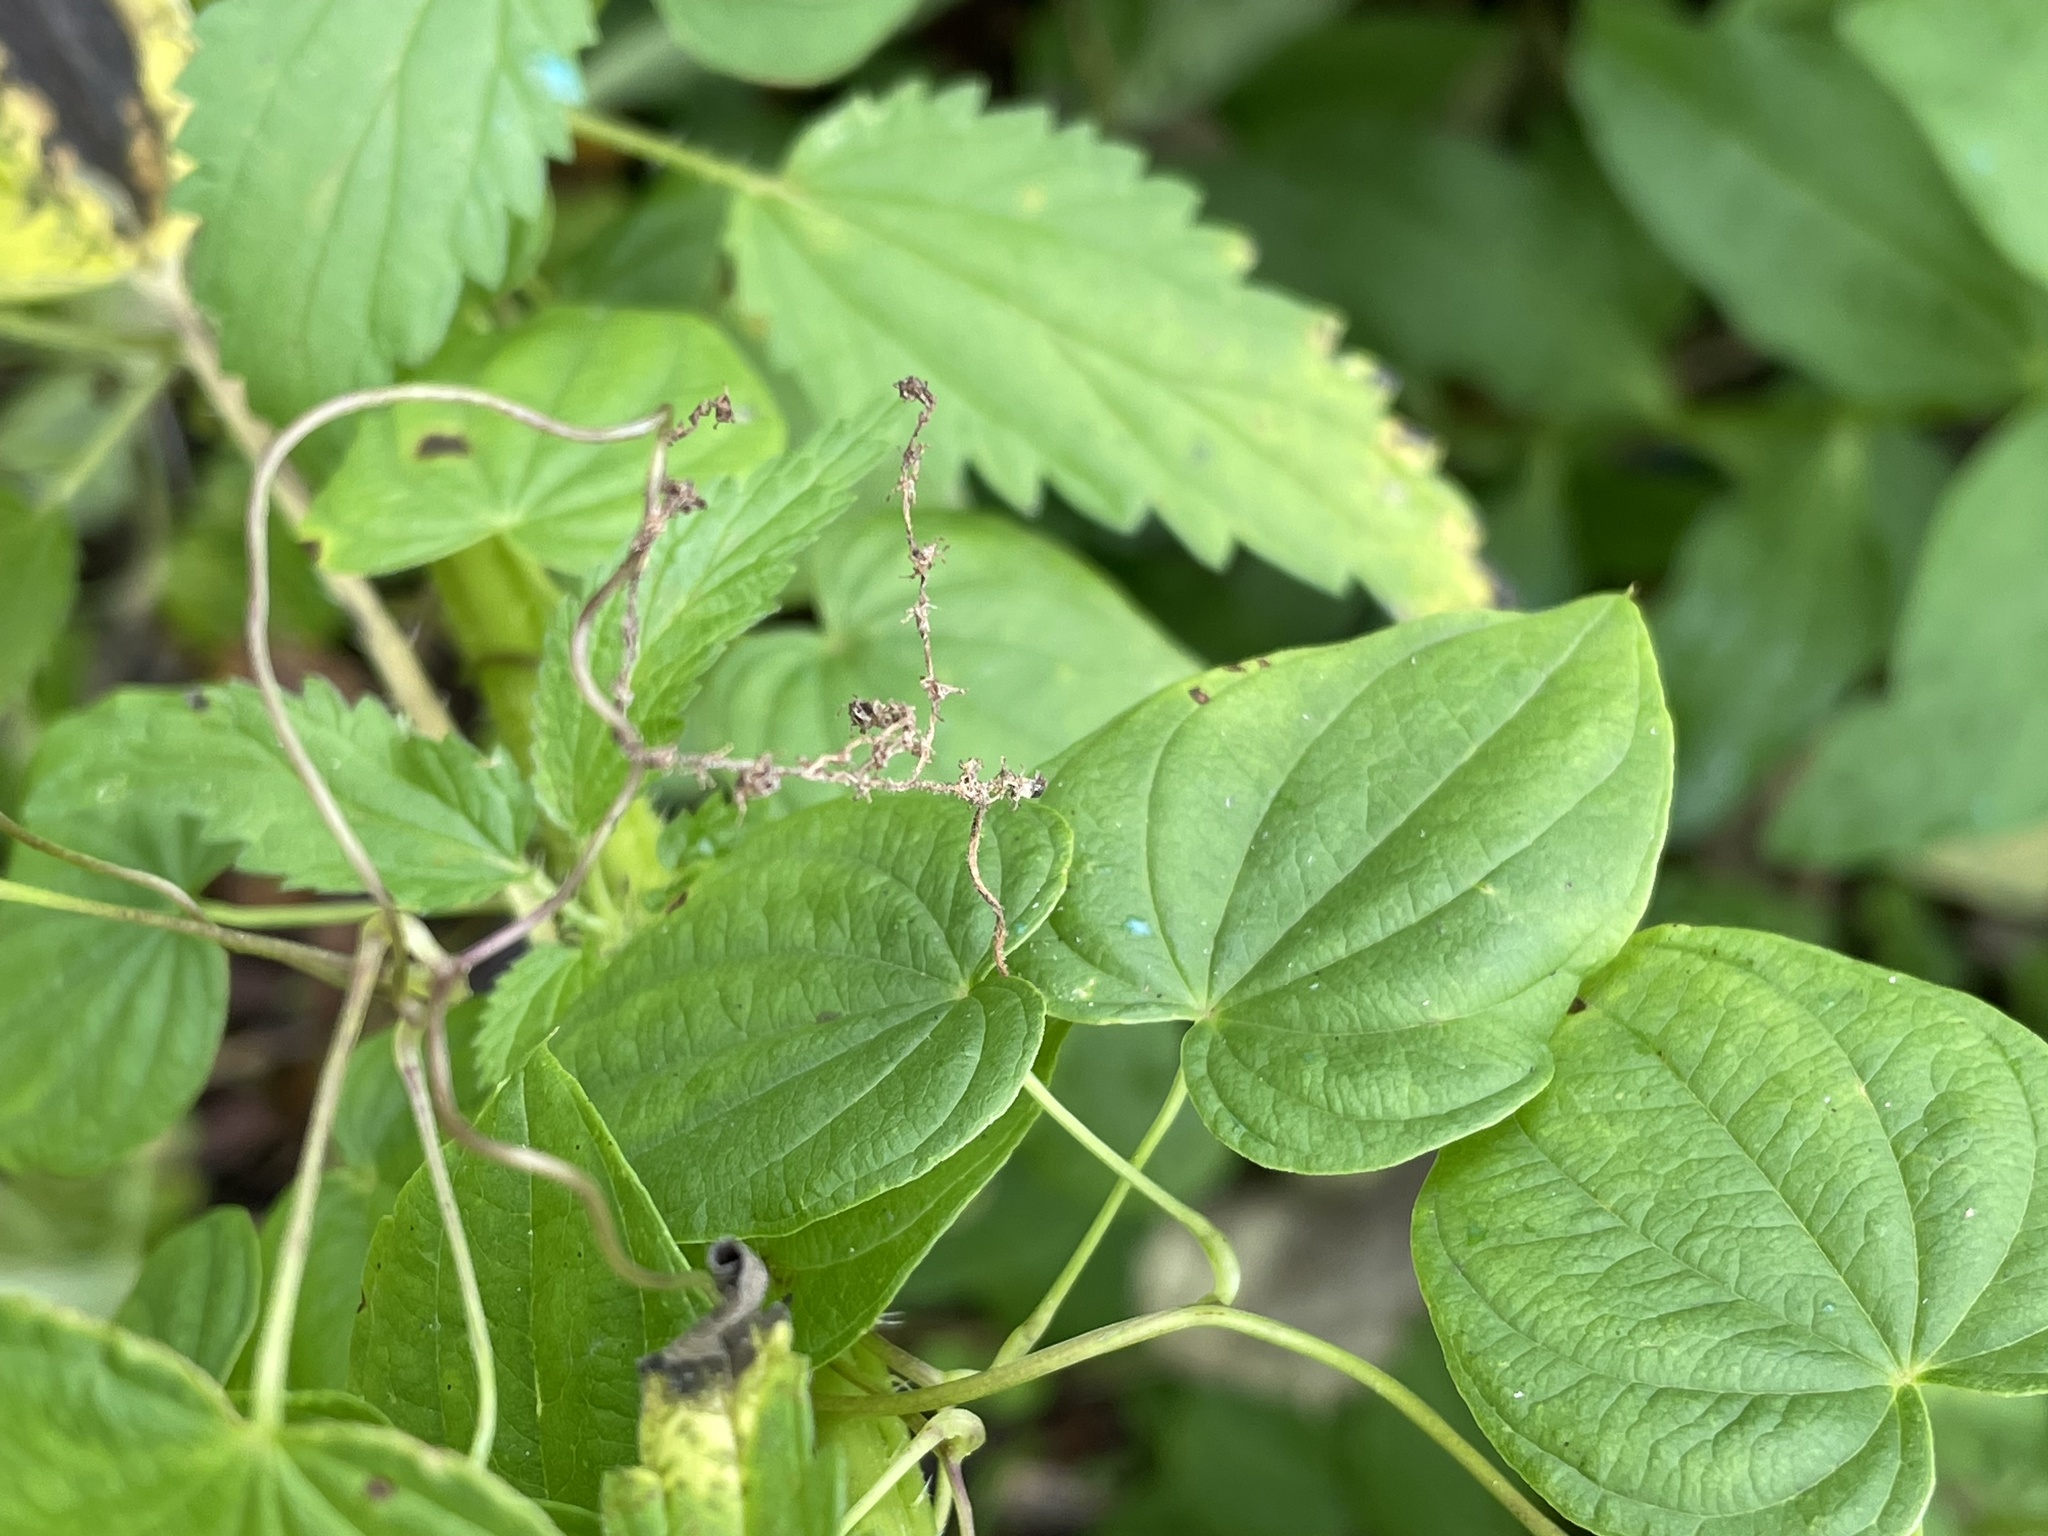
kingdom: Plantae
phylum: Tracheophyta
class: Liliopsida
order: Dioscoreales
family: Dioscoreaceae
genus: Dioscorea
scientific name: Dioscorea villosa
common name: Wild yam
